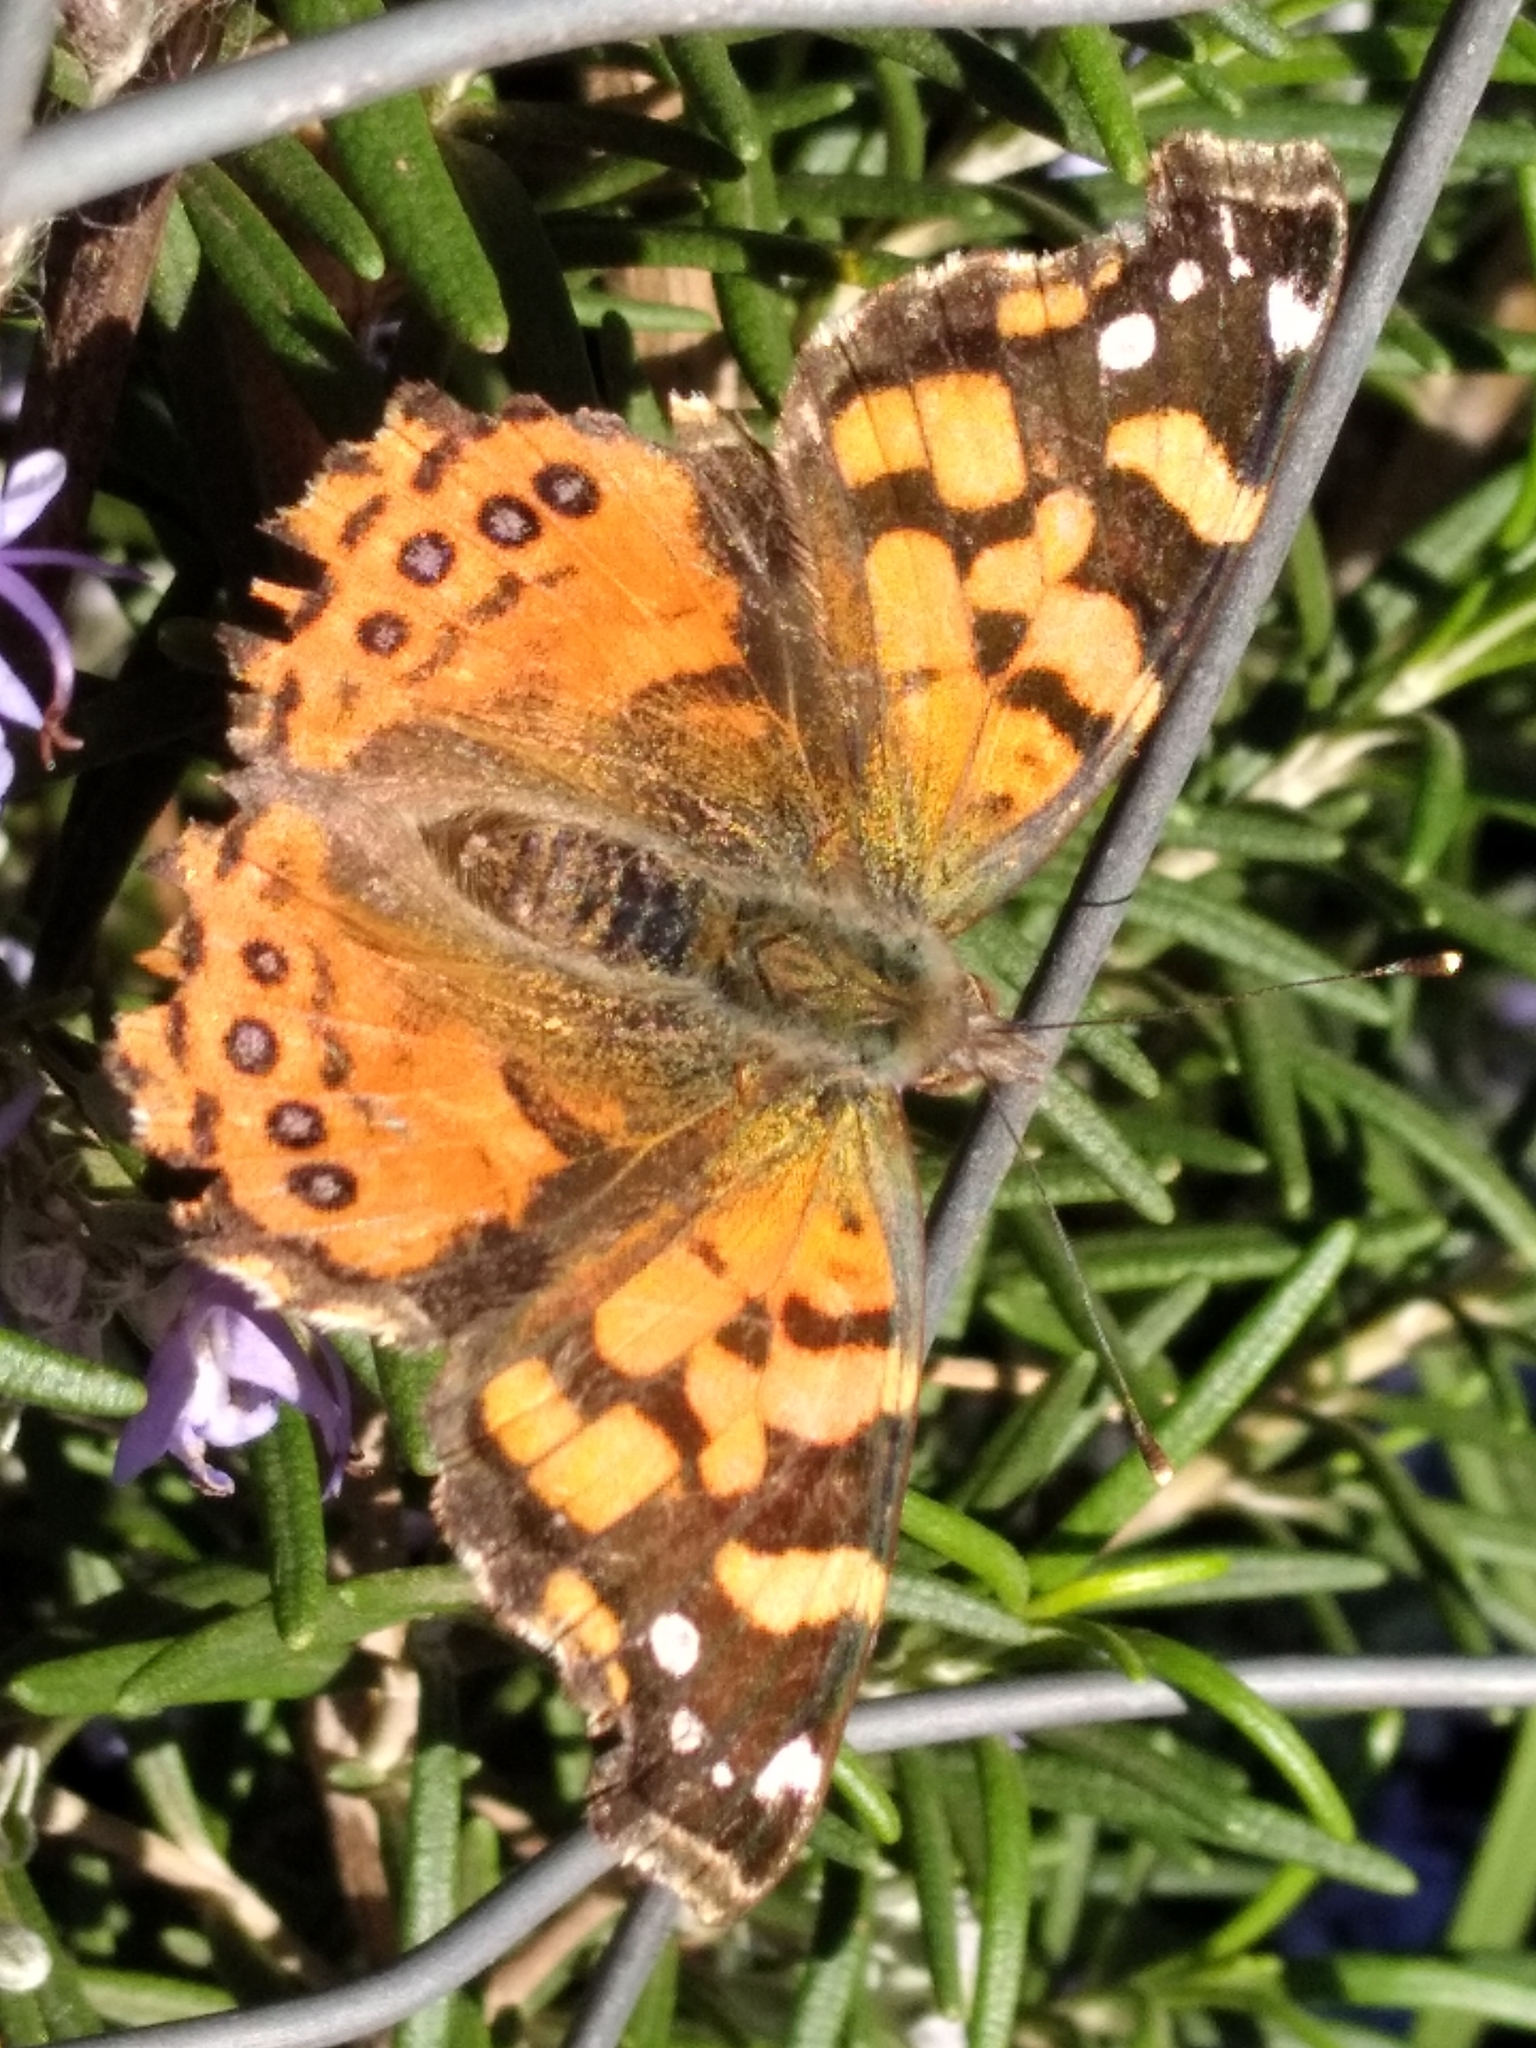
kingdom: Animalia
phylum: Arthropoda
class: Insecta
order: Lepidoptera
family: Nymphalidae
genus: Vanessa
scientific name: Vanessa carye
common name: Subtropical lady
